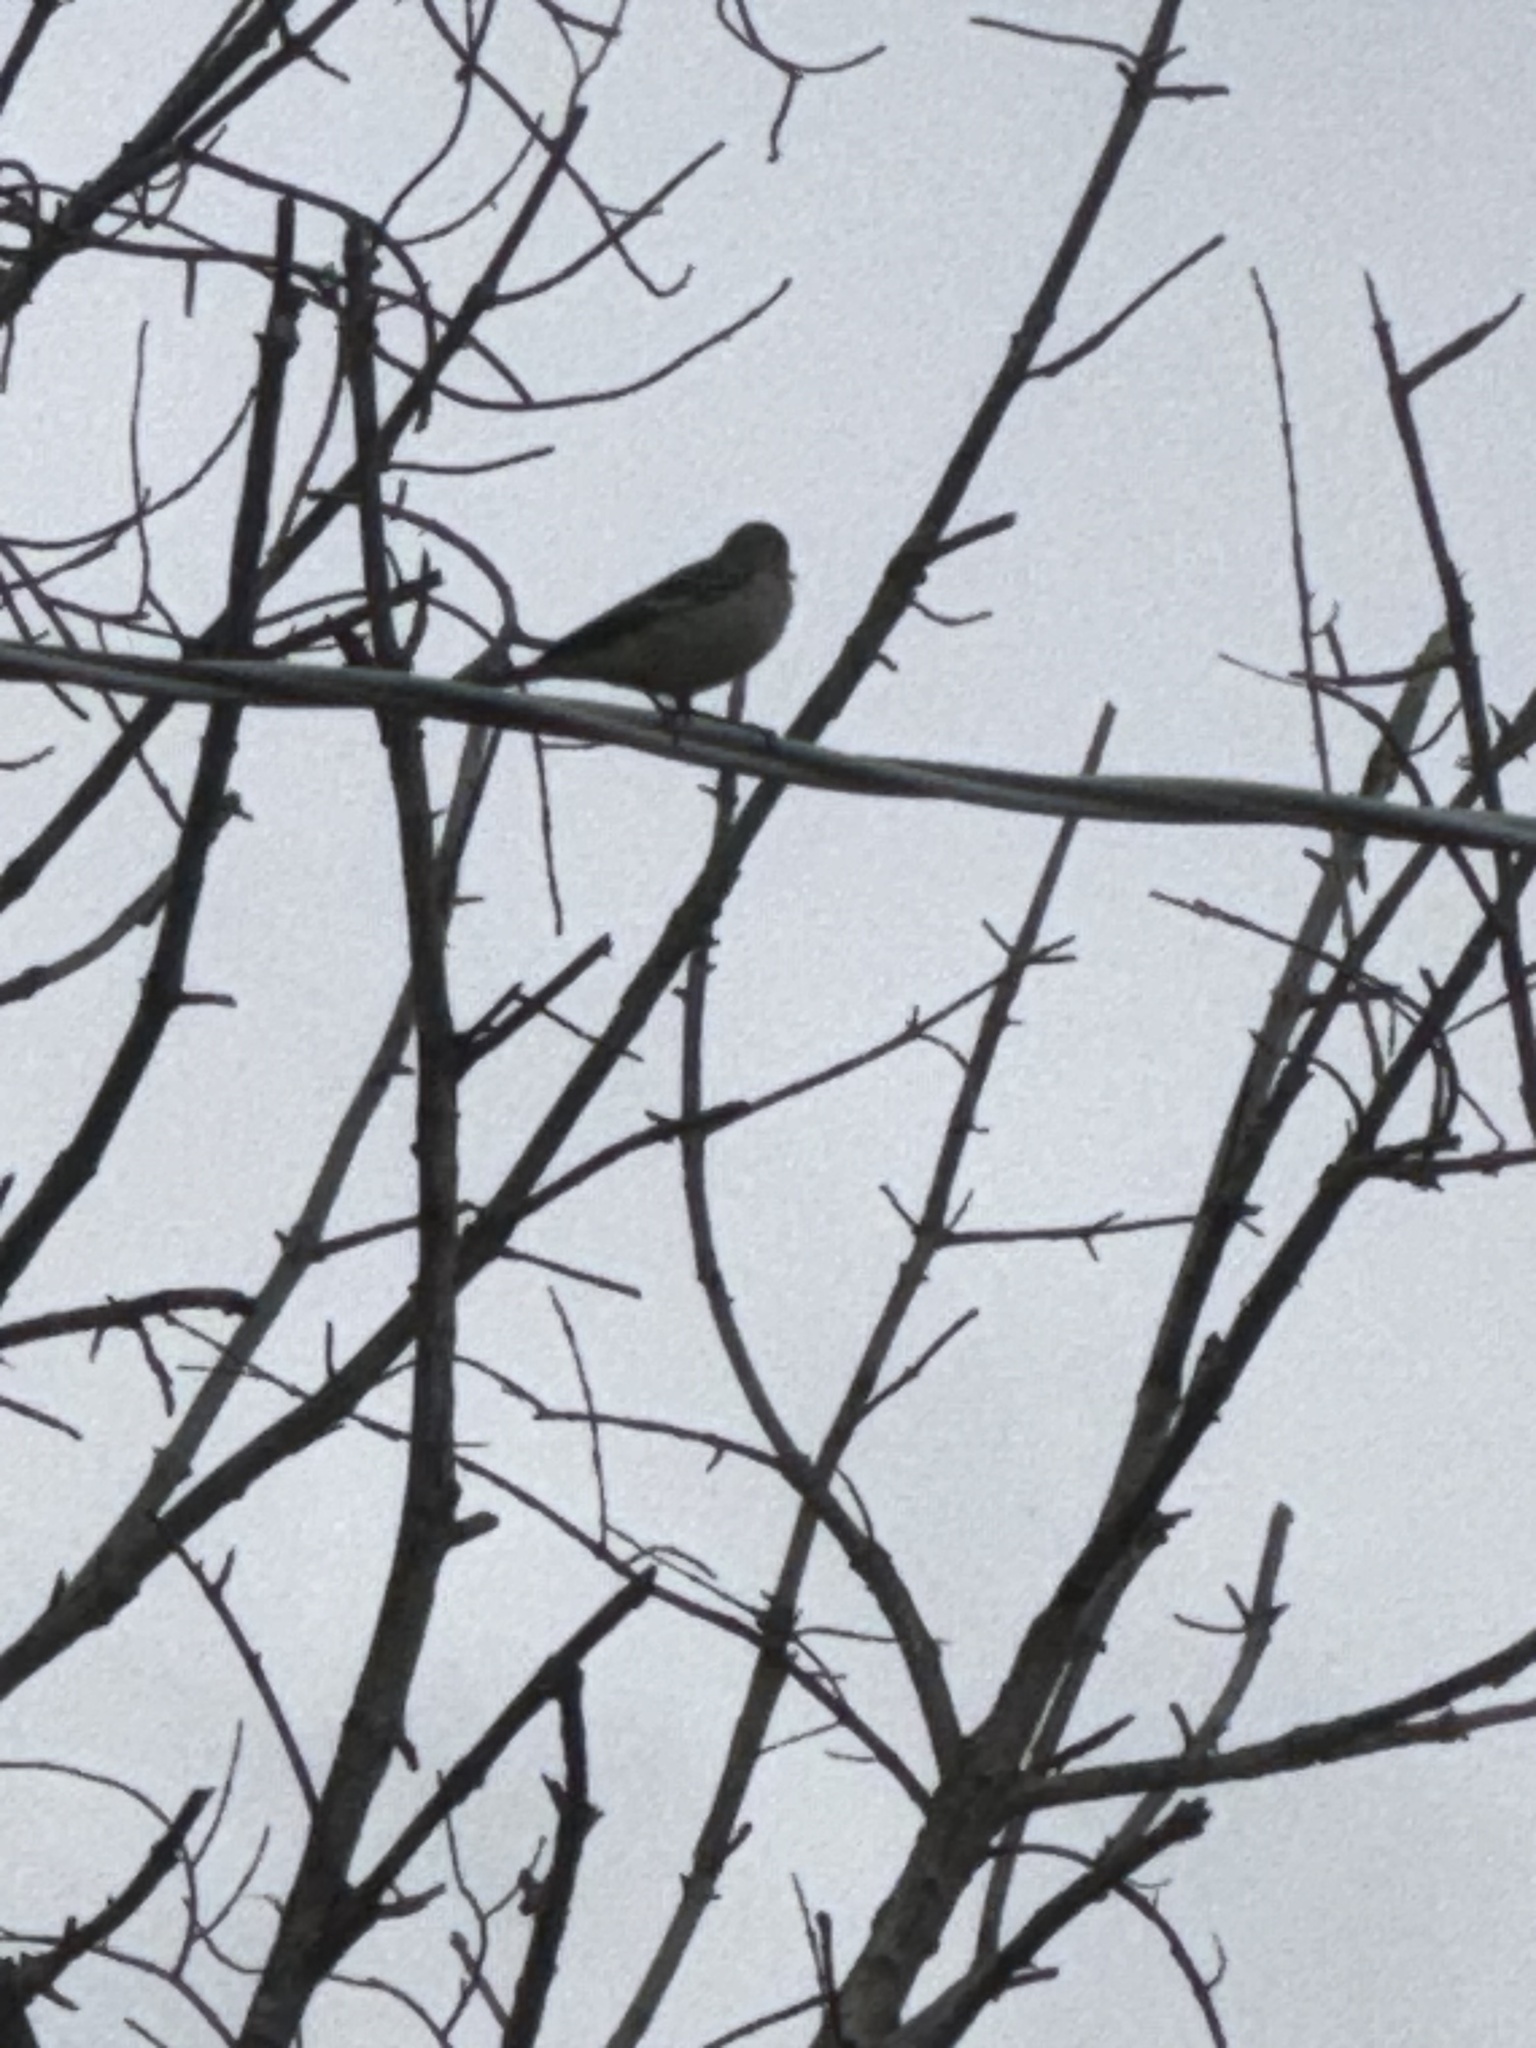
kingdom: Animalia
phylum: Chordata
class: Aves
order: Passeriformes
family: Mimidae
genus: Mimus
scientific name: Mimus polyglottos
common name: Northern mockingbird
